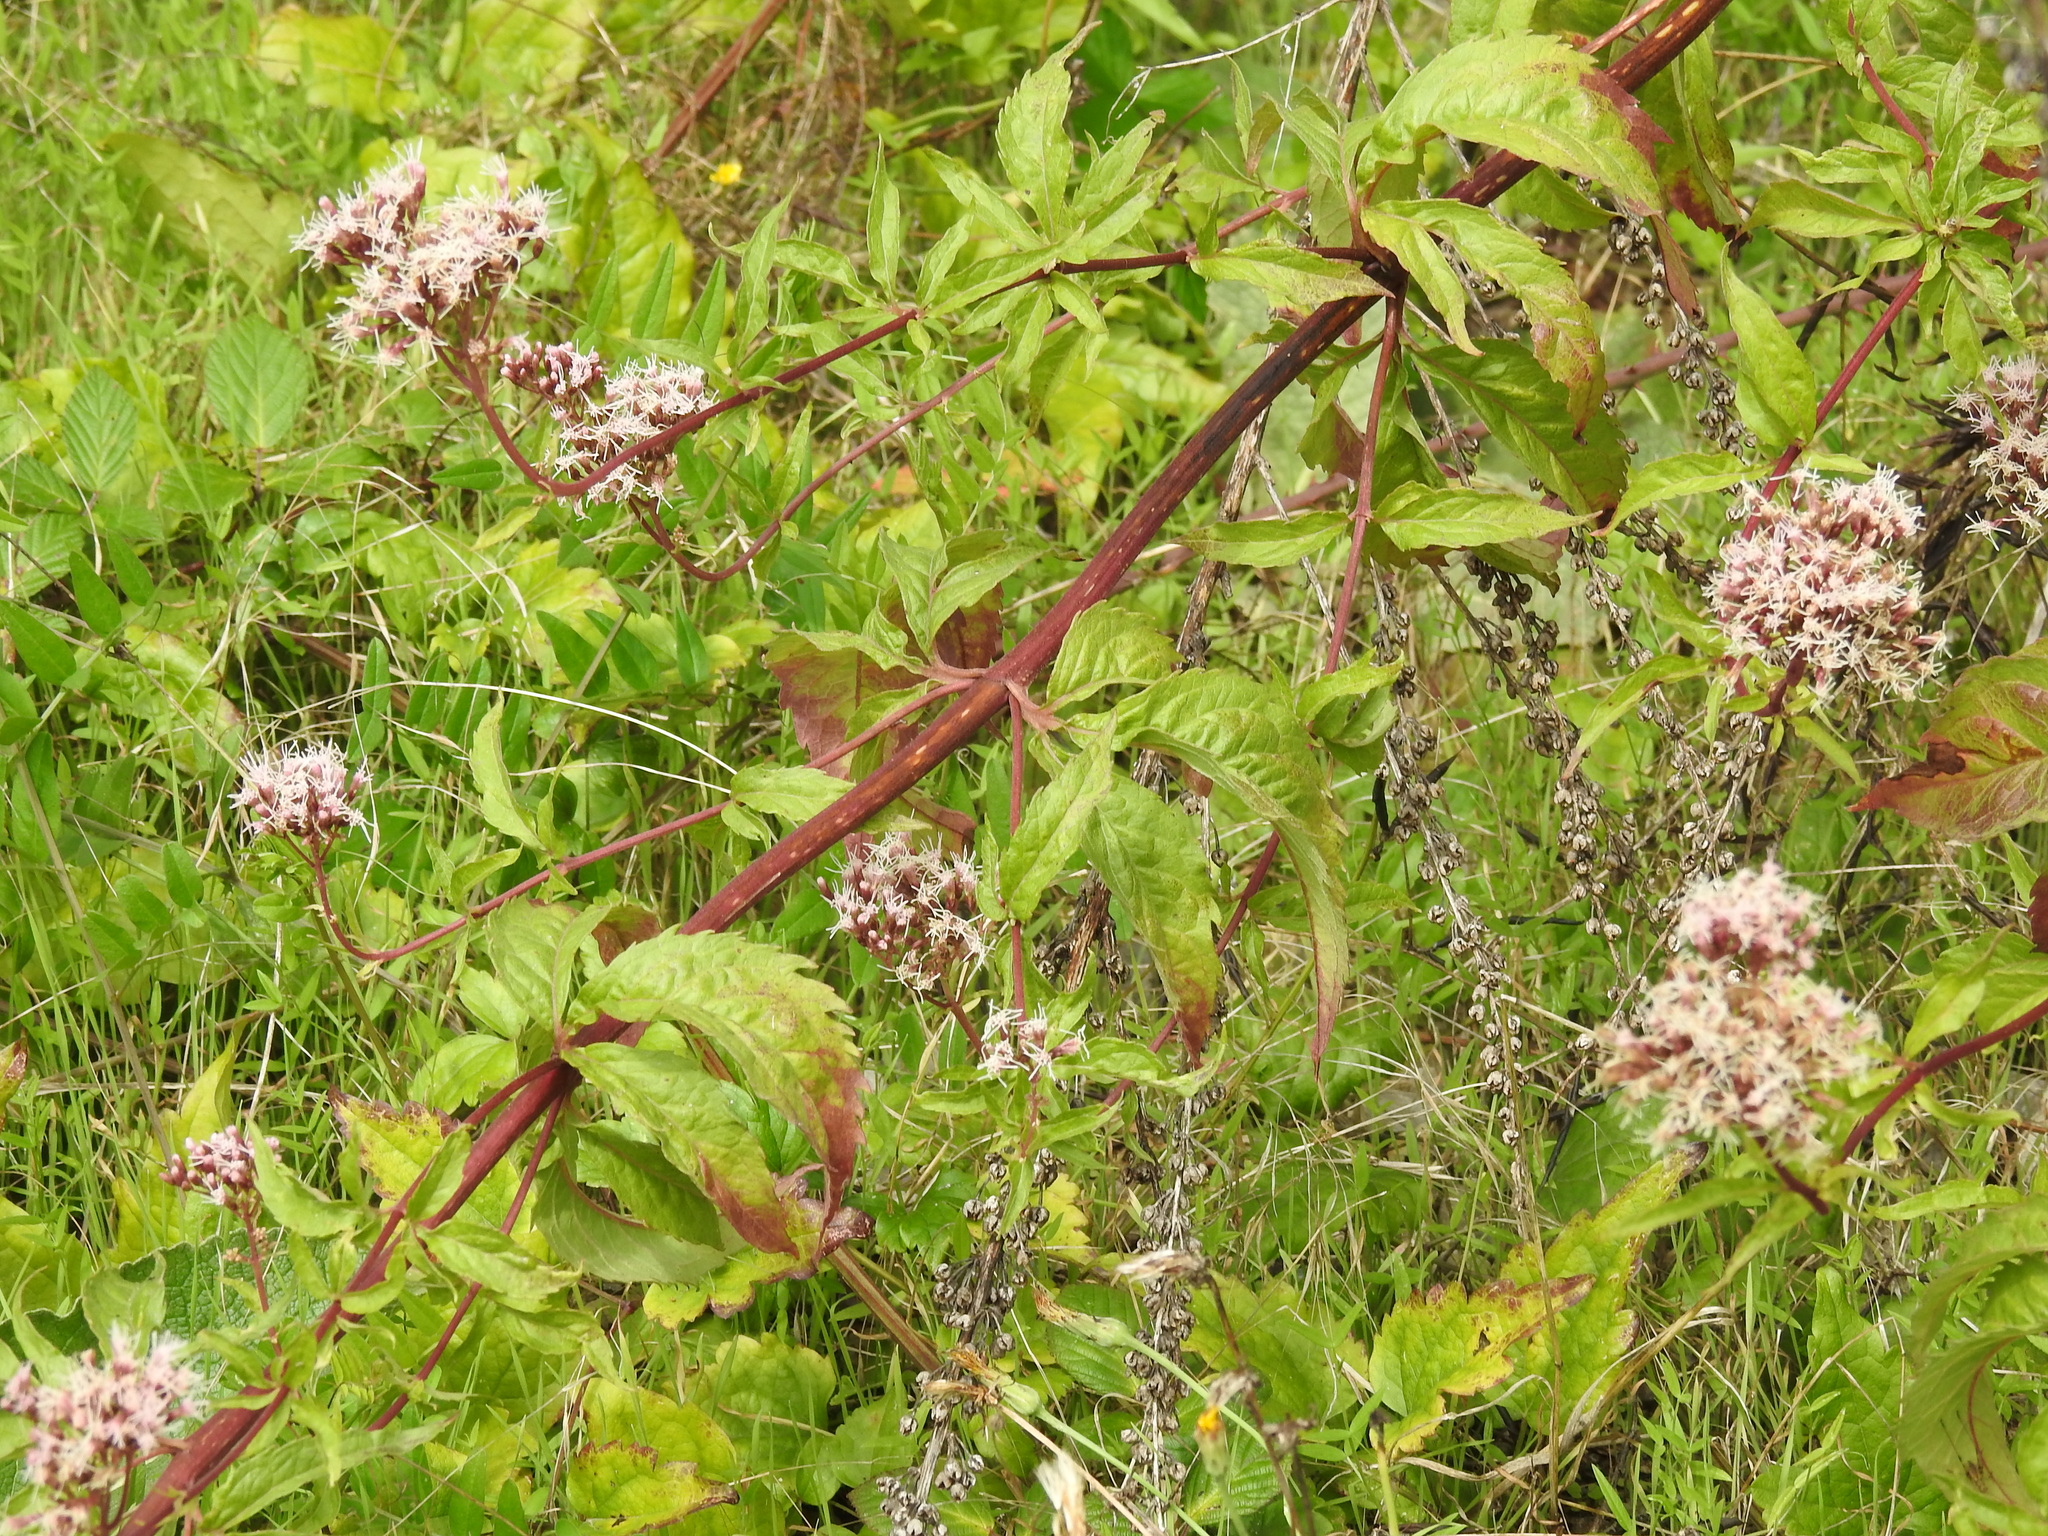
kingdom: Plantae
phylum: Tracheophyta
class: Magnoliopsida
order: Asterales
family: Asteraceae
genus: Eupatorium
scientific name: Eupatorium cannabinum
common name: Hemp-agrimony
